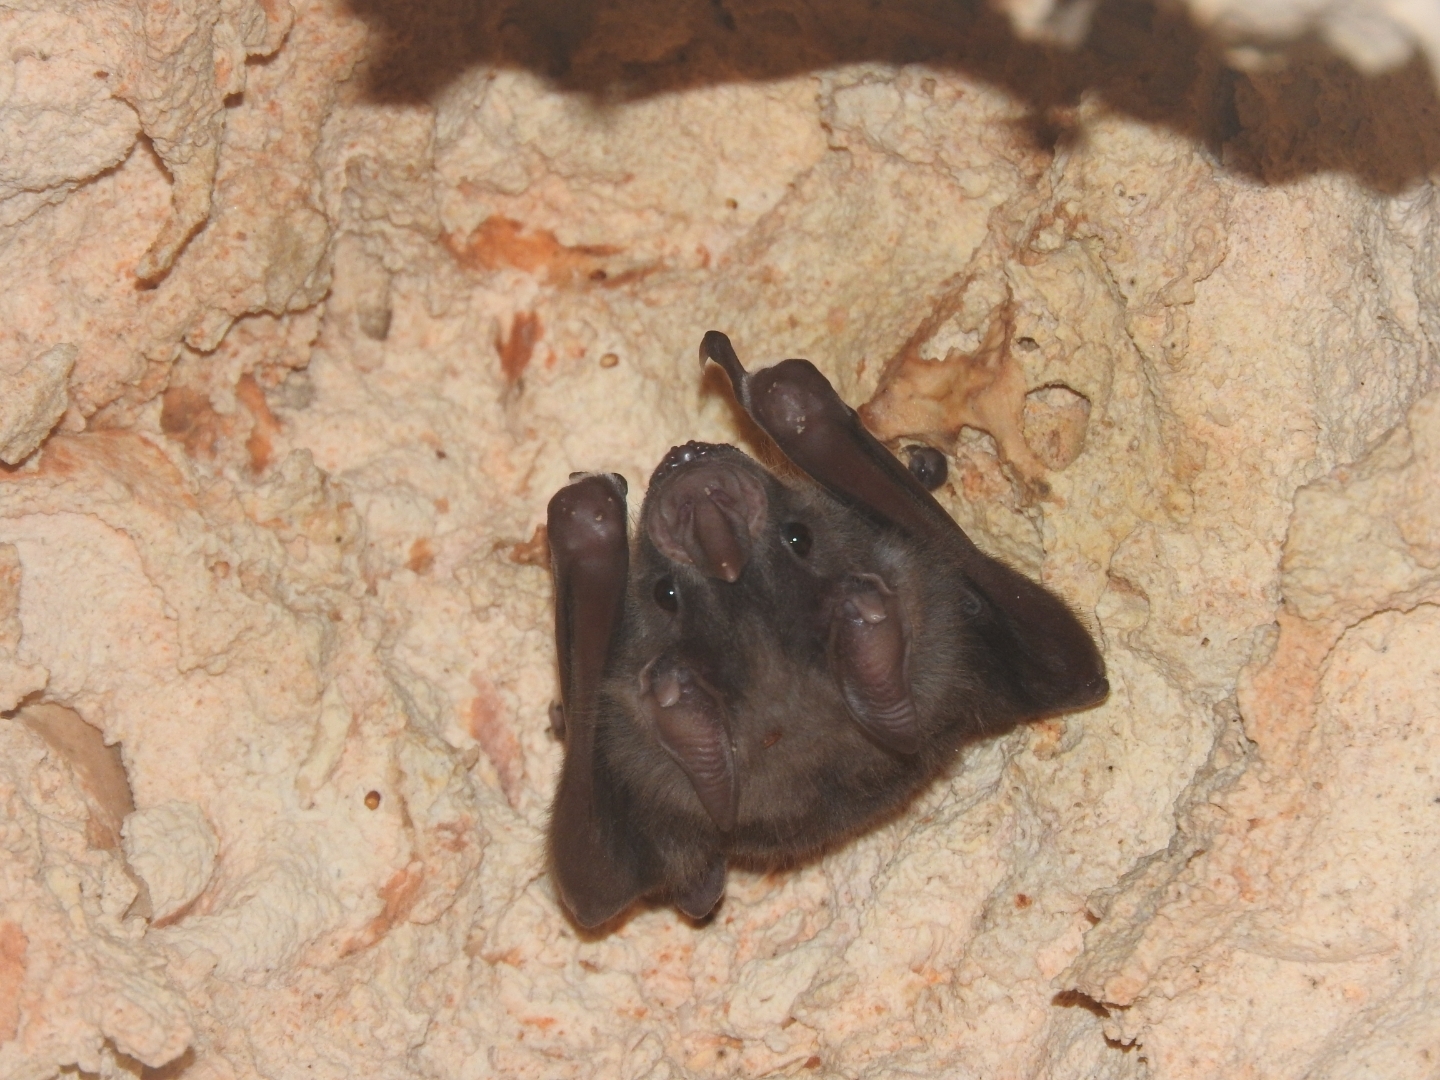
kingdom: Animalia
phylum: Chordata
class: Mammalia
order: Chiroptera
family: Phyllostomidae
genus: Artibeus
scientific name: Artibeus jamaicensis
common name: Jamaican fruit-eating bat
